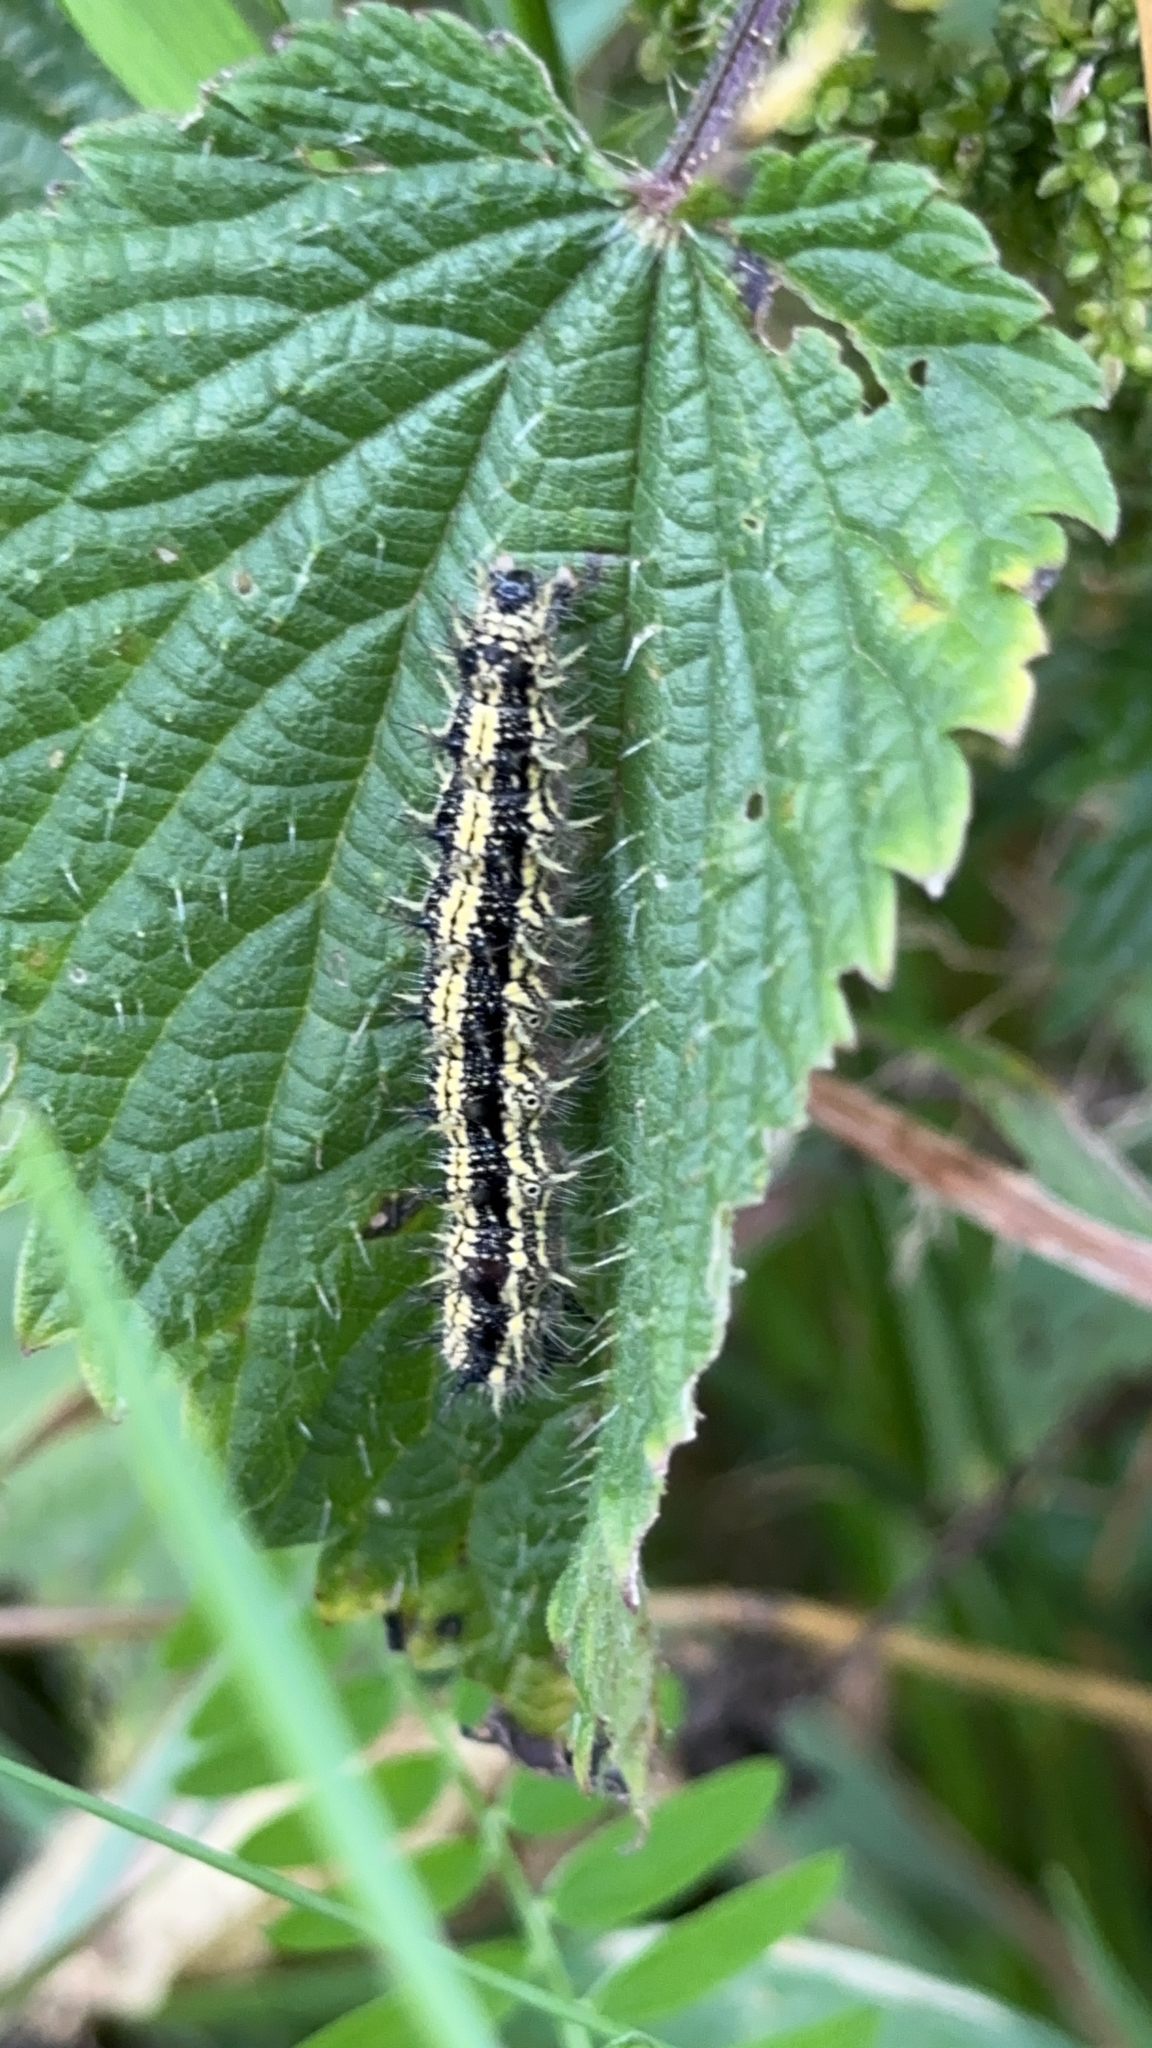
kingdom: Animalia
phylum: Arthropoda
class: Insecta
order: Lepidoptera
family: Nymphalidae
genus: Aglais
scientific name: Aglais urticae
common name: Small tortoiseshell
